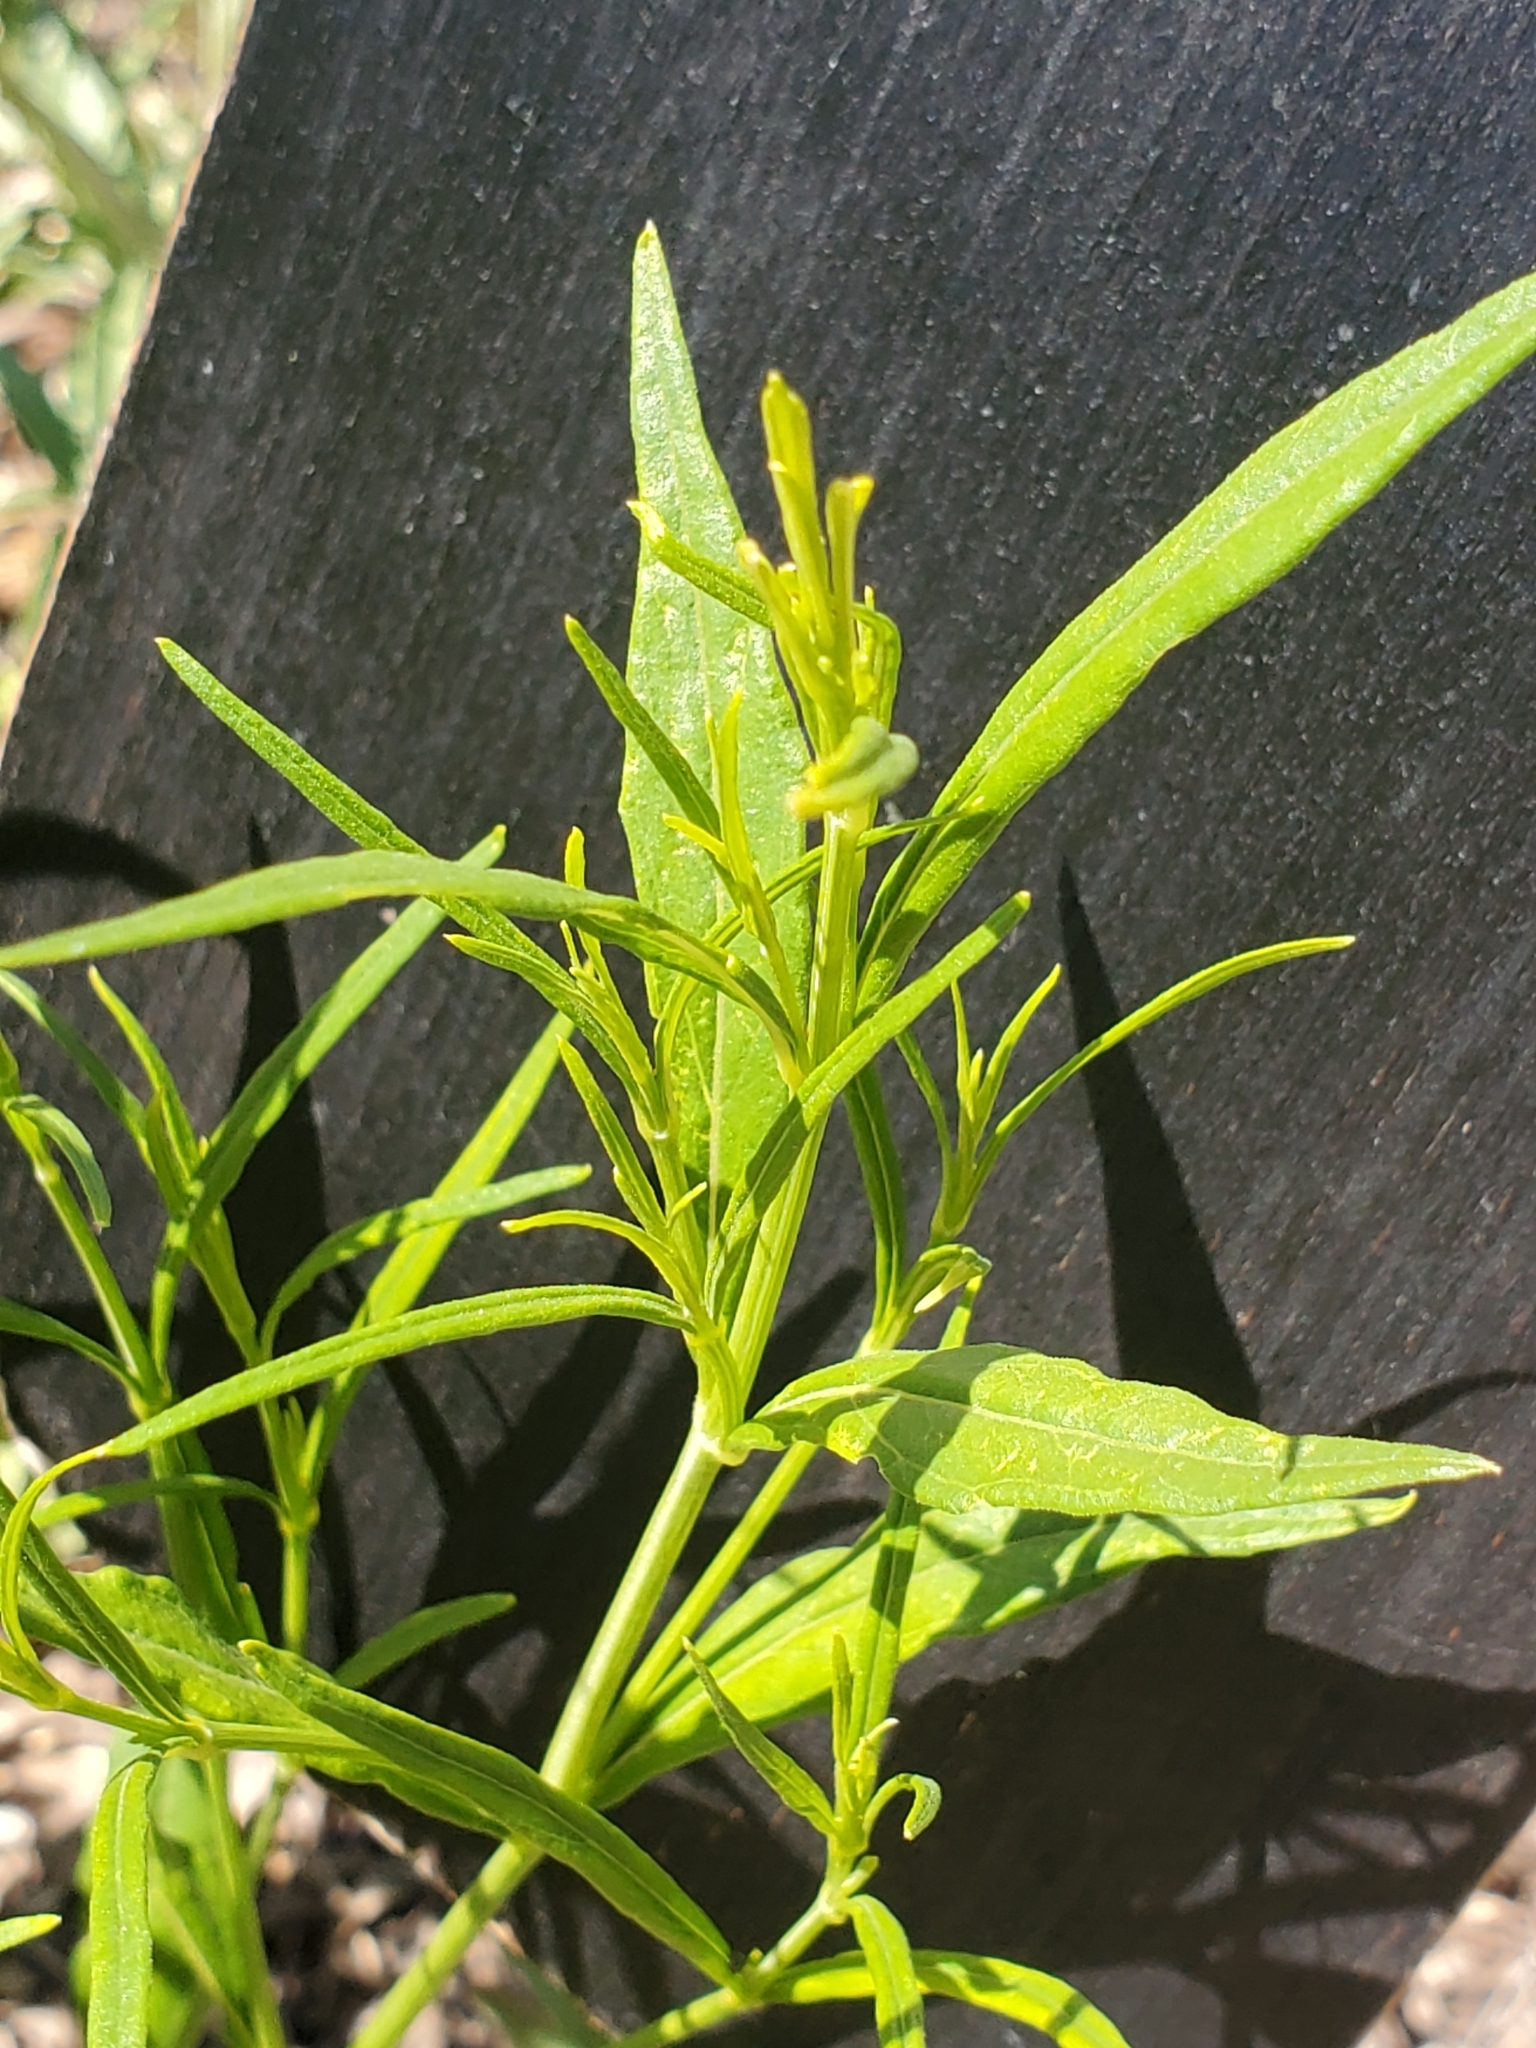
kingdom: Plantae
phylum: Tracheophyta
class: Magnoliopsida
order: Lamiales
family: Acanthaceae
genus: Carlowrightia
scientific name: Carlowrightia linearifolia
